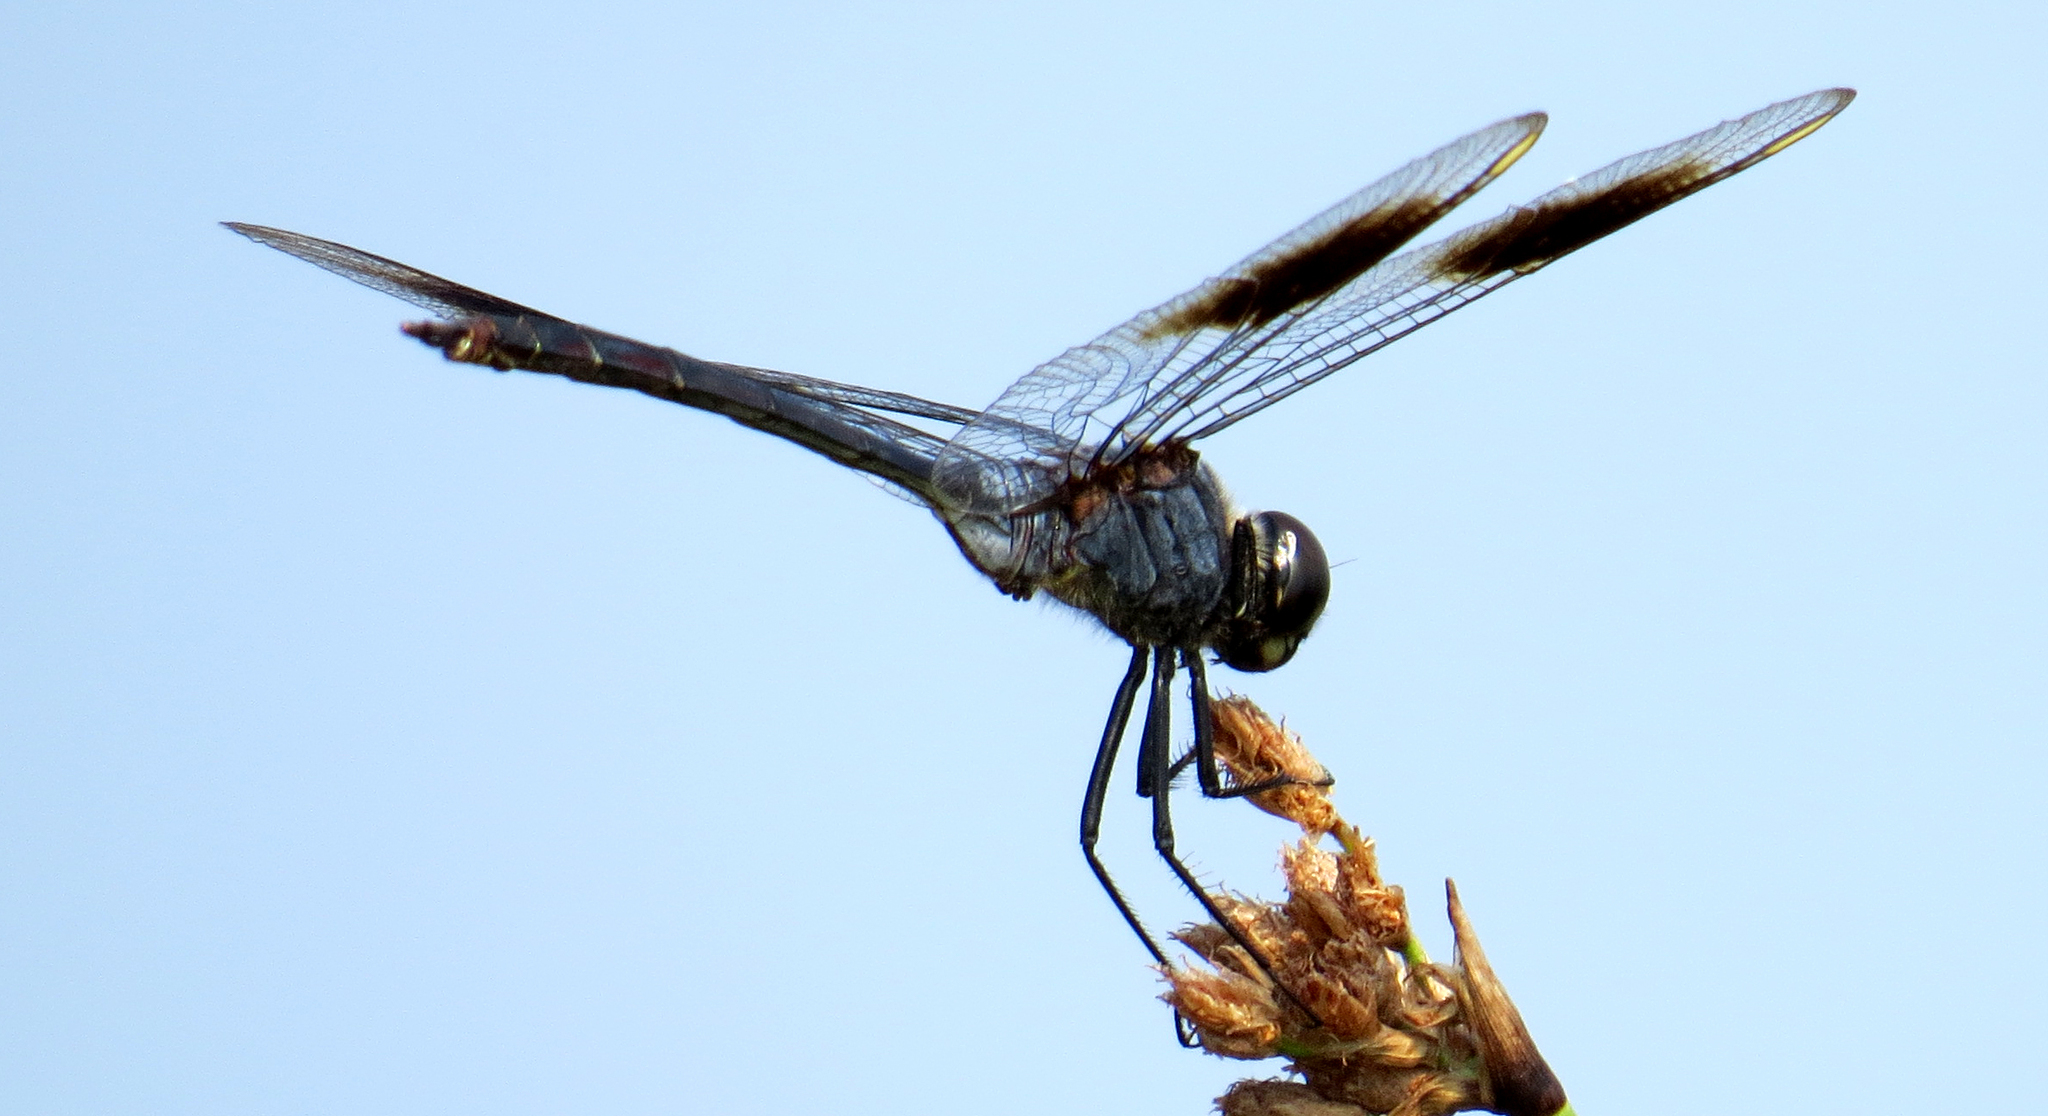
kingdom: Animalia
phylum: Arthropoda
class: Insecta
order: Odonata
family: Libellulidae
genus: Brachymesia
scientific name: Brachymesia gravida
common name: Four-spotted pennant
